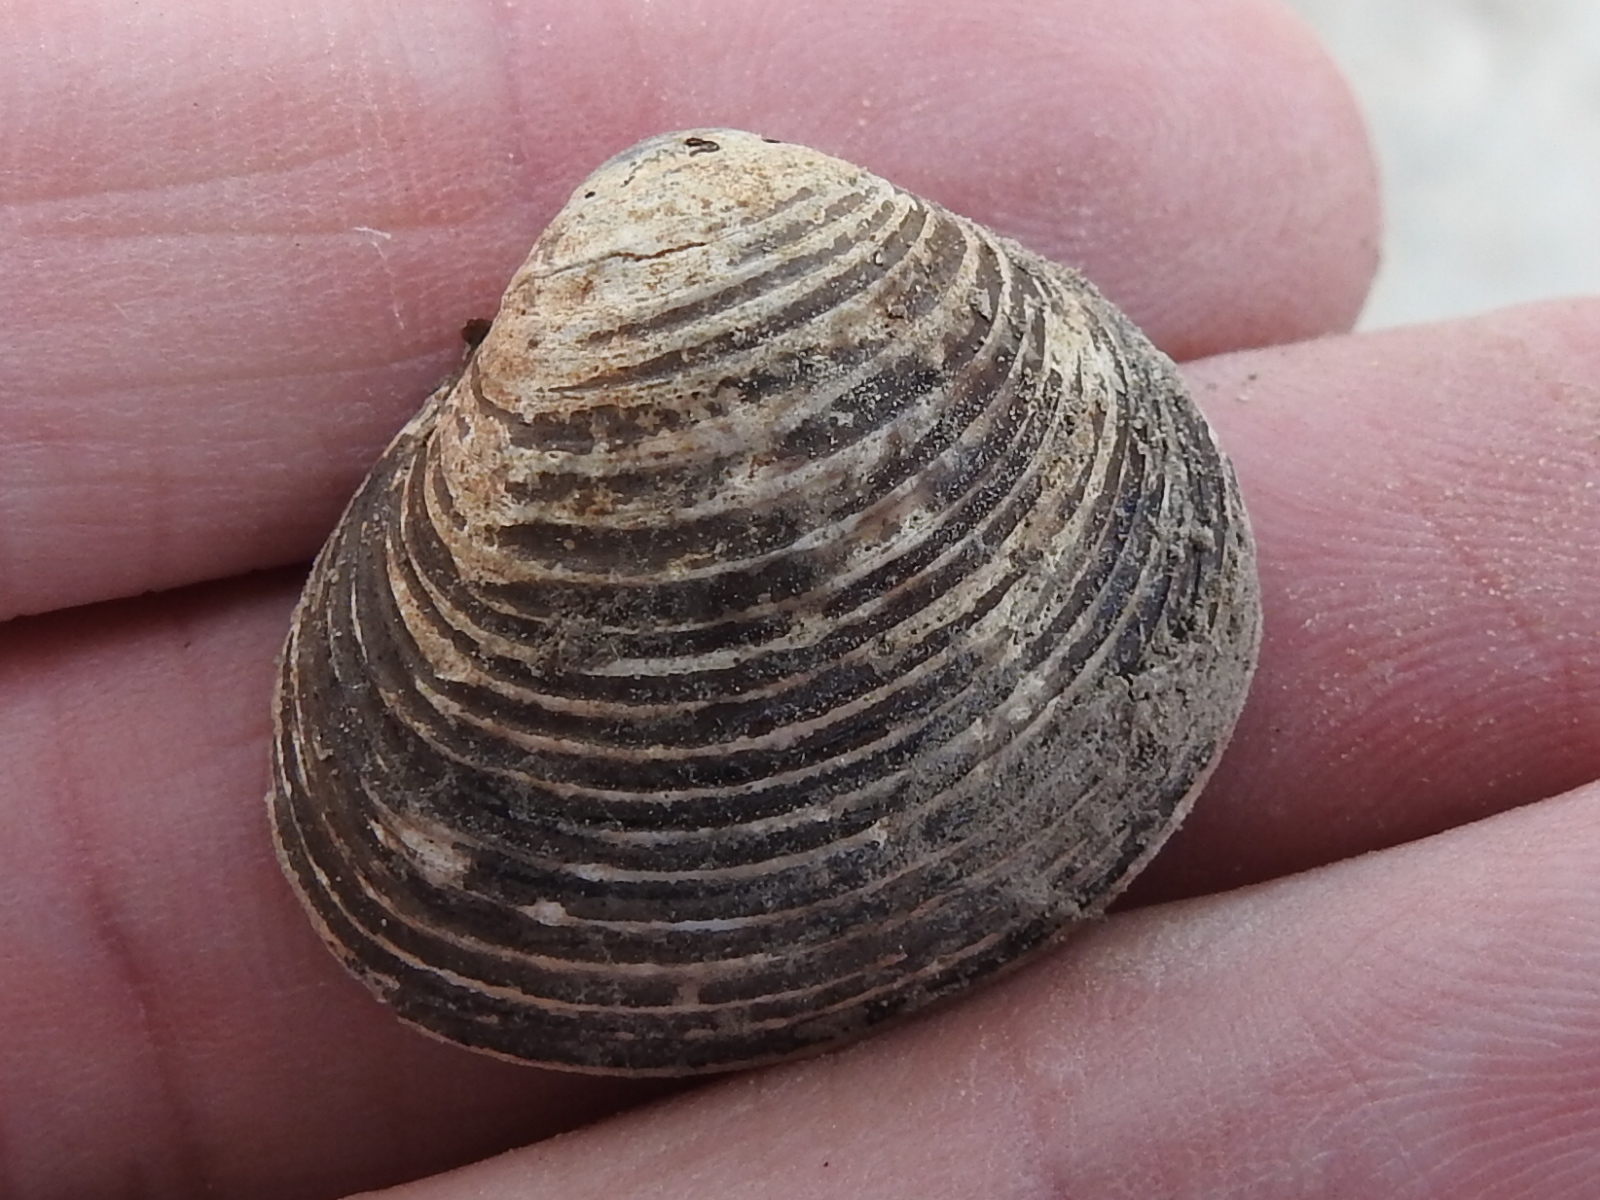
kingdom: Animalia
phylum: Mollusca
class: Bivalvia
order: Venerida
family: Cyrenidae
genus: Corbicula
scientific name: Corbicula fluminea
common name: Asian clam
